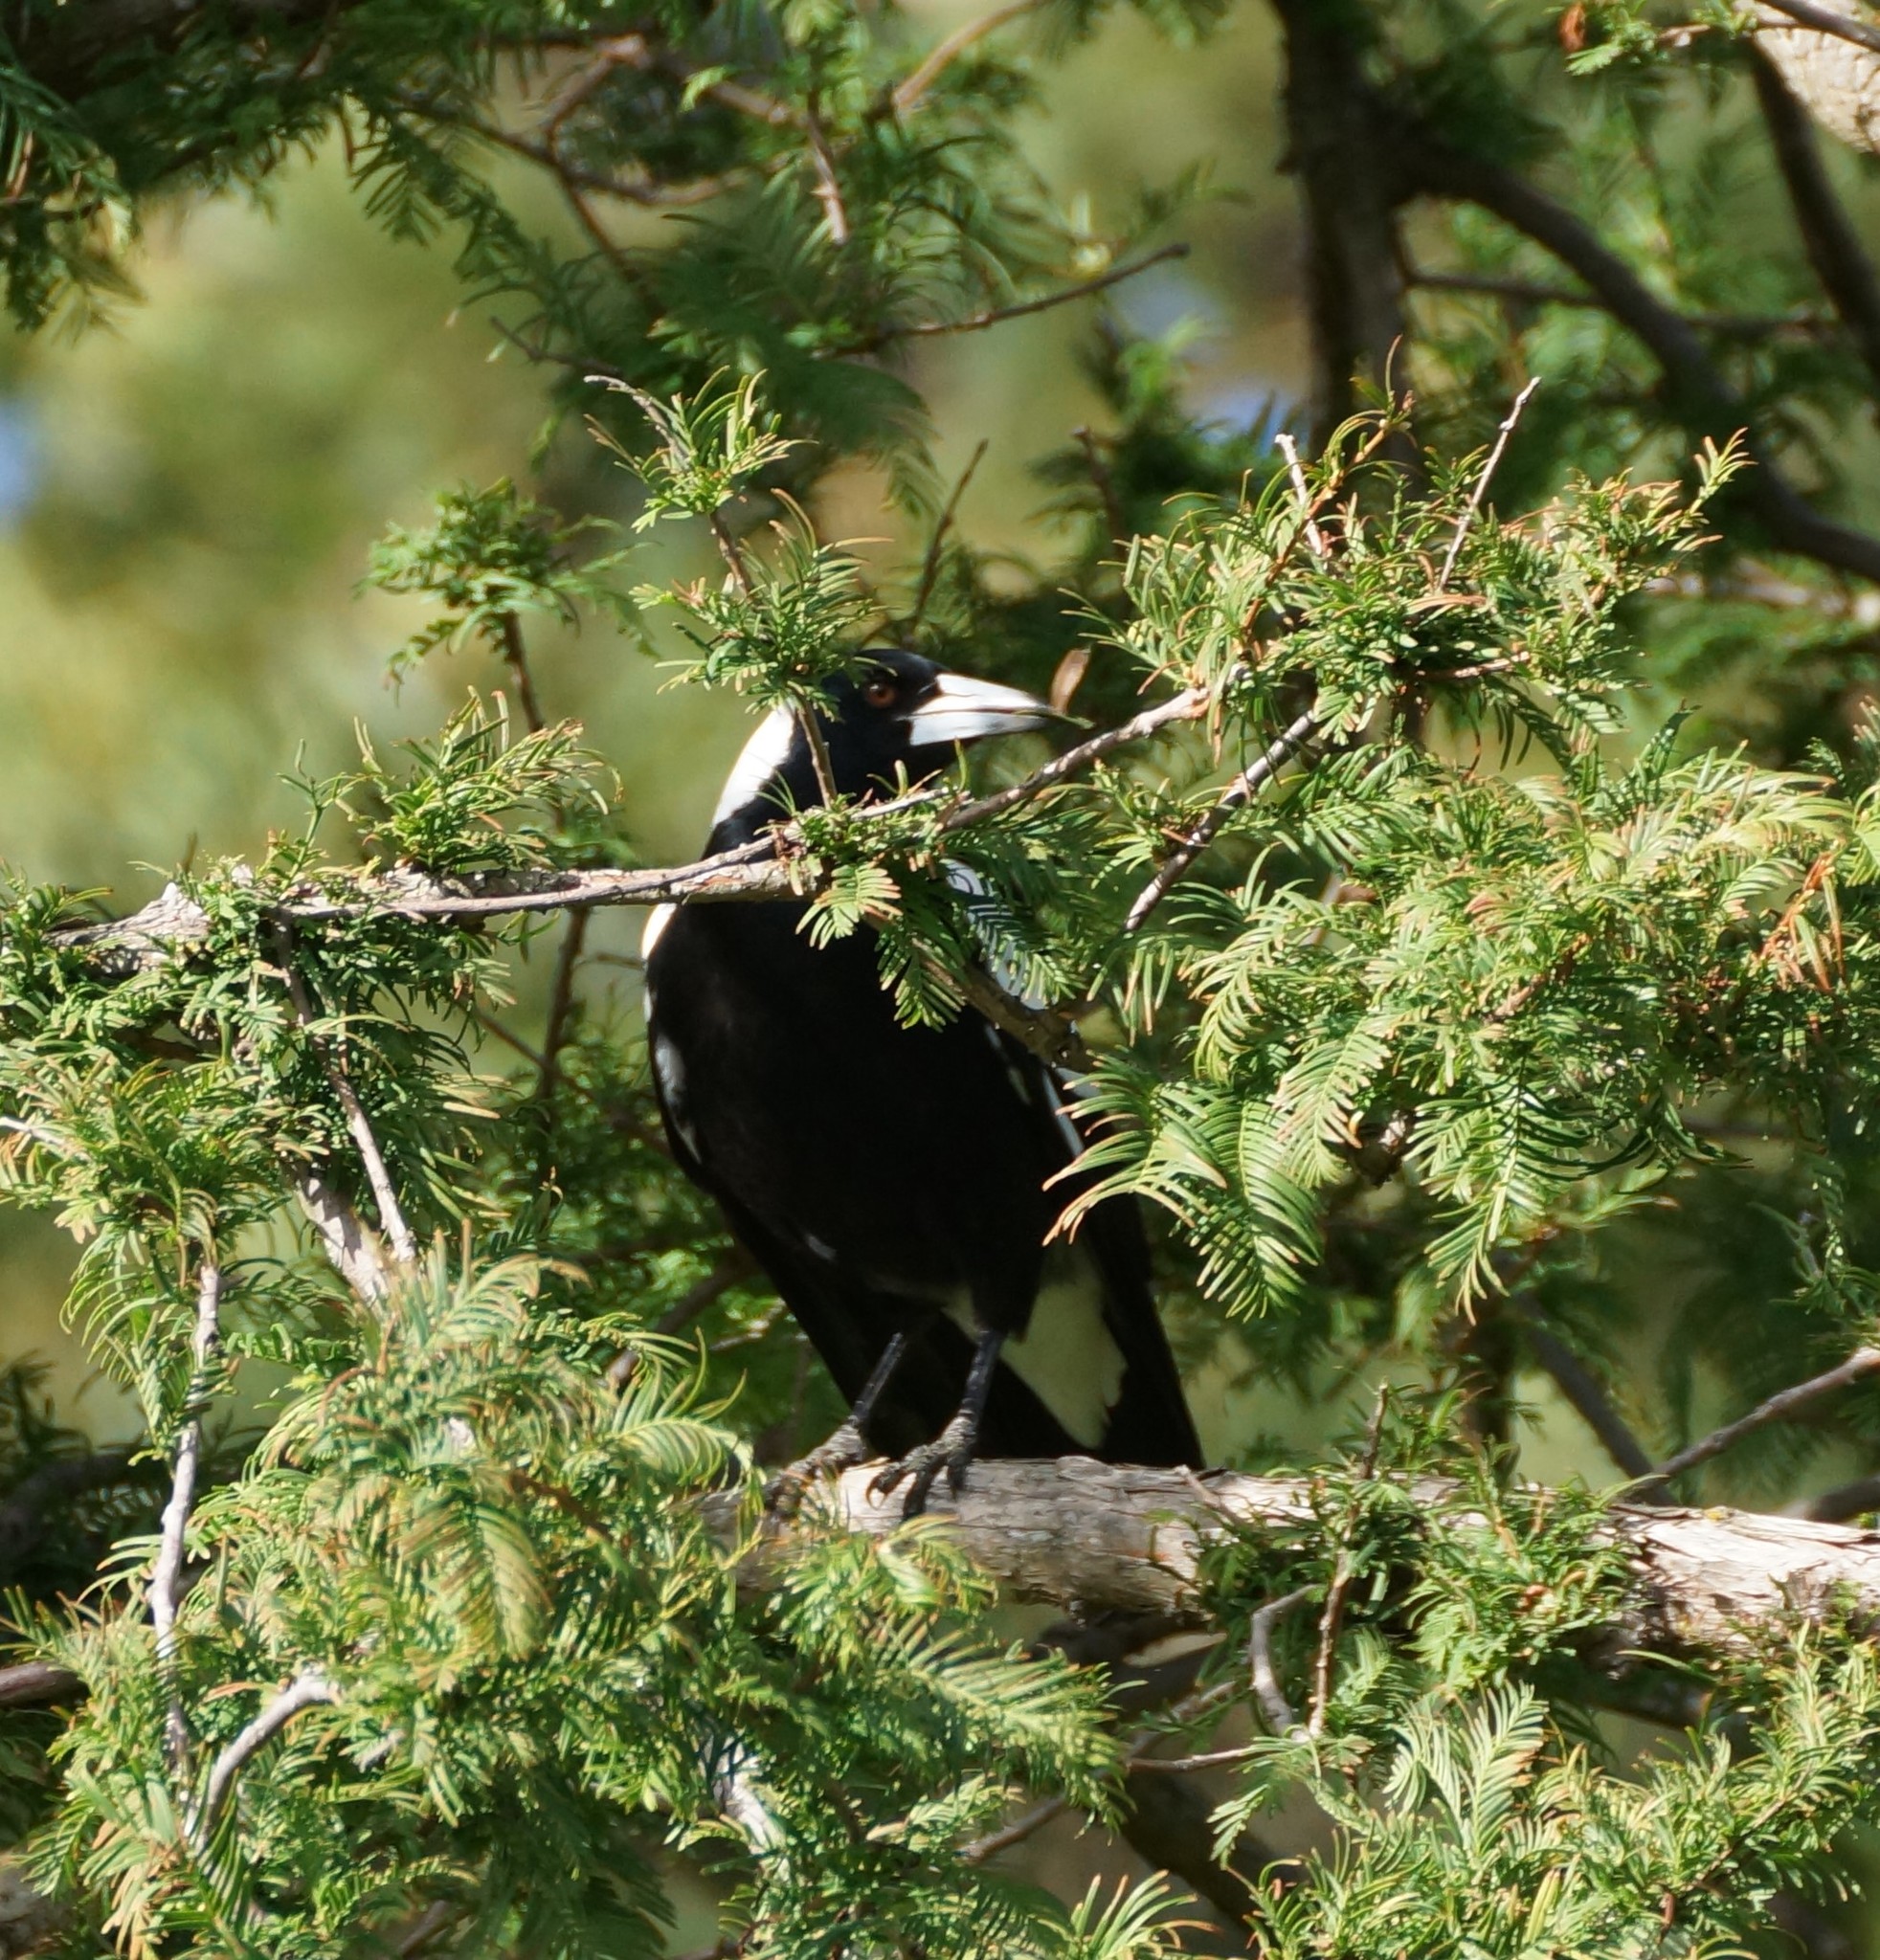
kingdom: Animalia
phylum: Chordata
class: Aves
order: Passeriformes
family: Cracticidae
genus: Gymnorhina
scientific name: Gymnorhina tibicen
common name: Australian magpie
